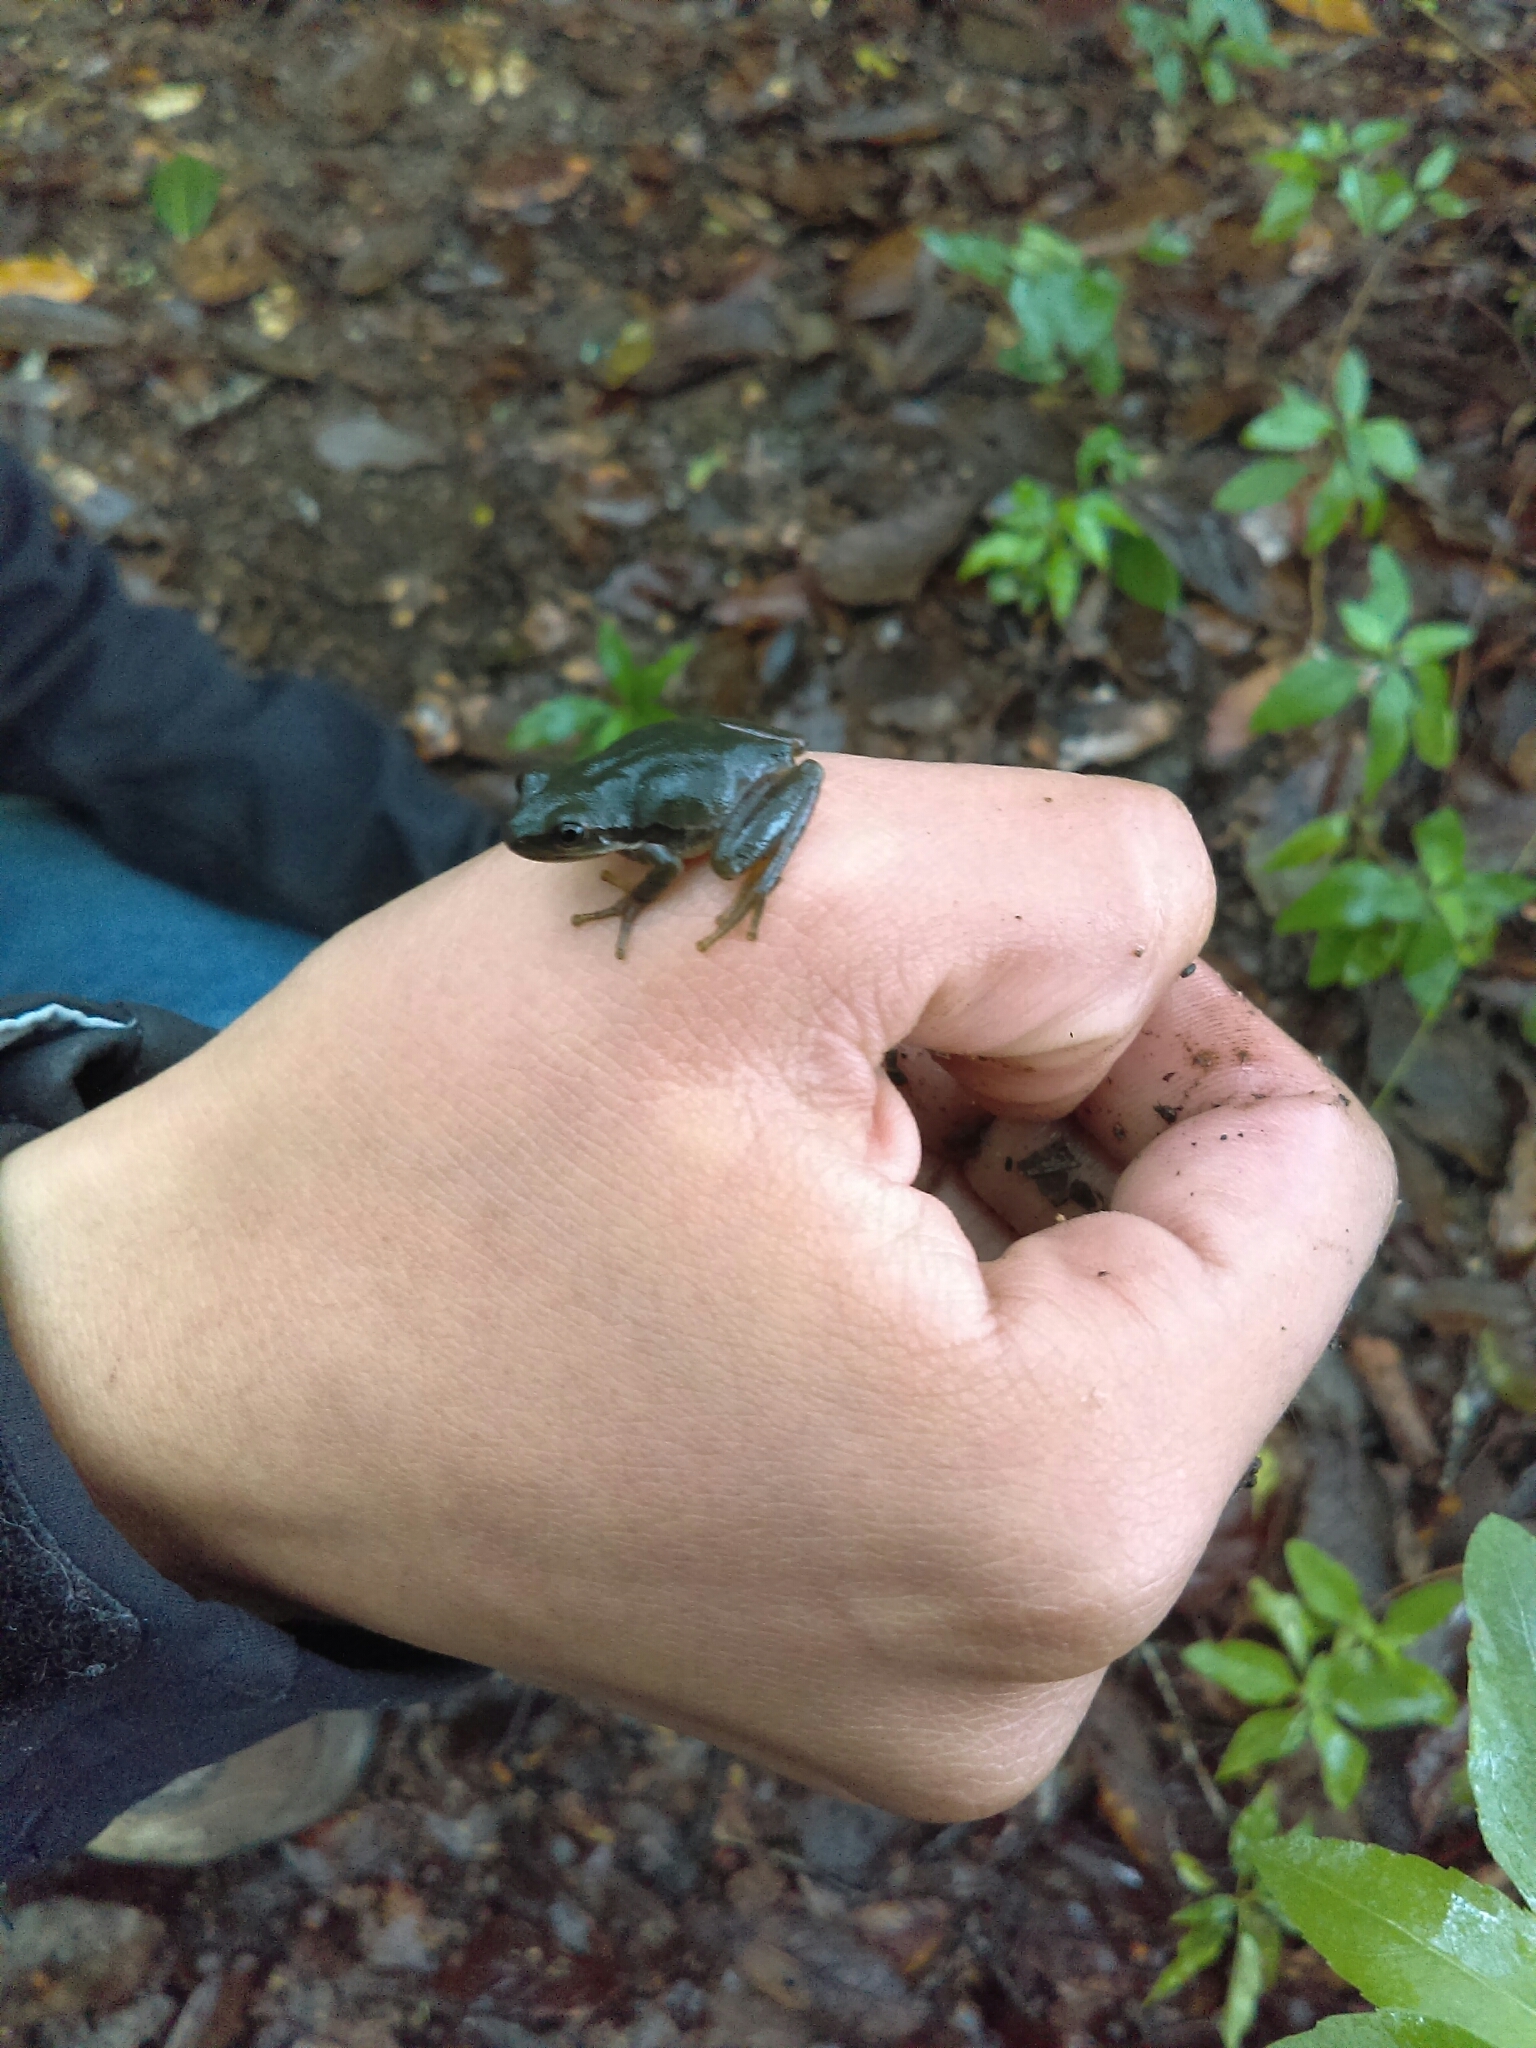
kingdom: Animalia
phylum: Chordata
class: Amphibia
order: Anura
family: Hylidae
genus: Dryophytes
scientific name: Dryophytes eximius
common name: Mountain treefrog
